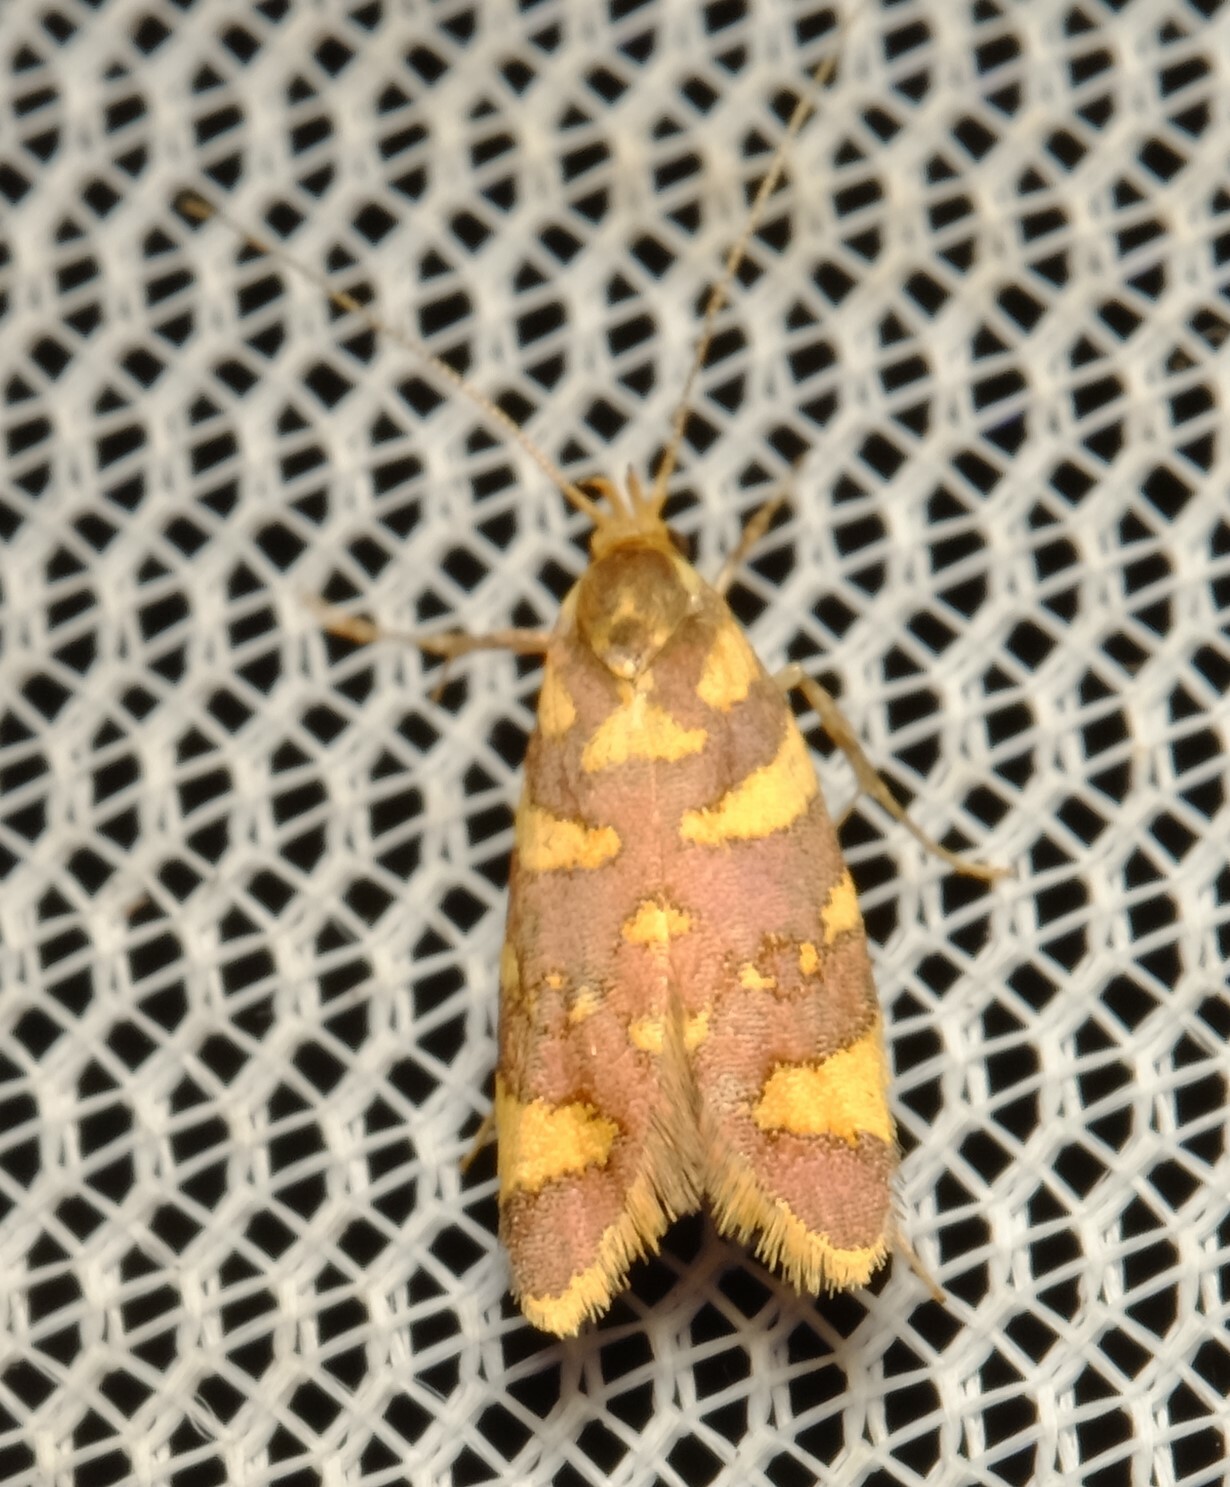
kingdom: Animalia
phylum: Arthropoda
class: Insecta
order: Lepidoptera
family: Oecophoridae
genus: Tisobarica
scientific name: Tisobarica thyteria
